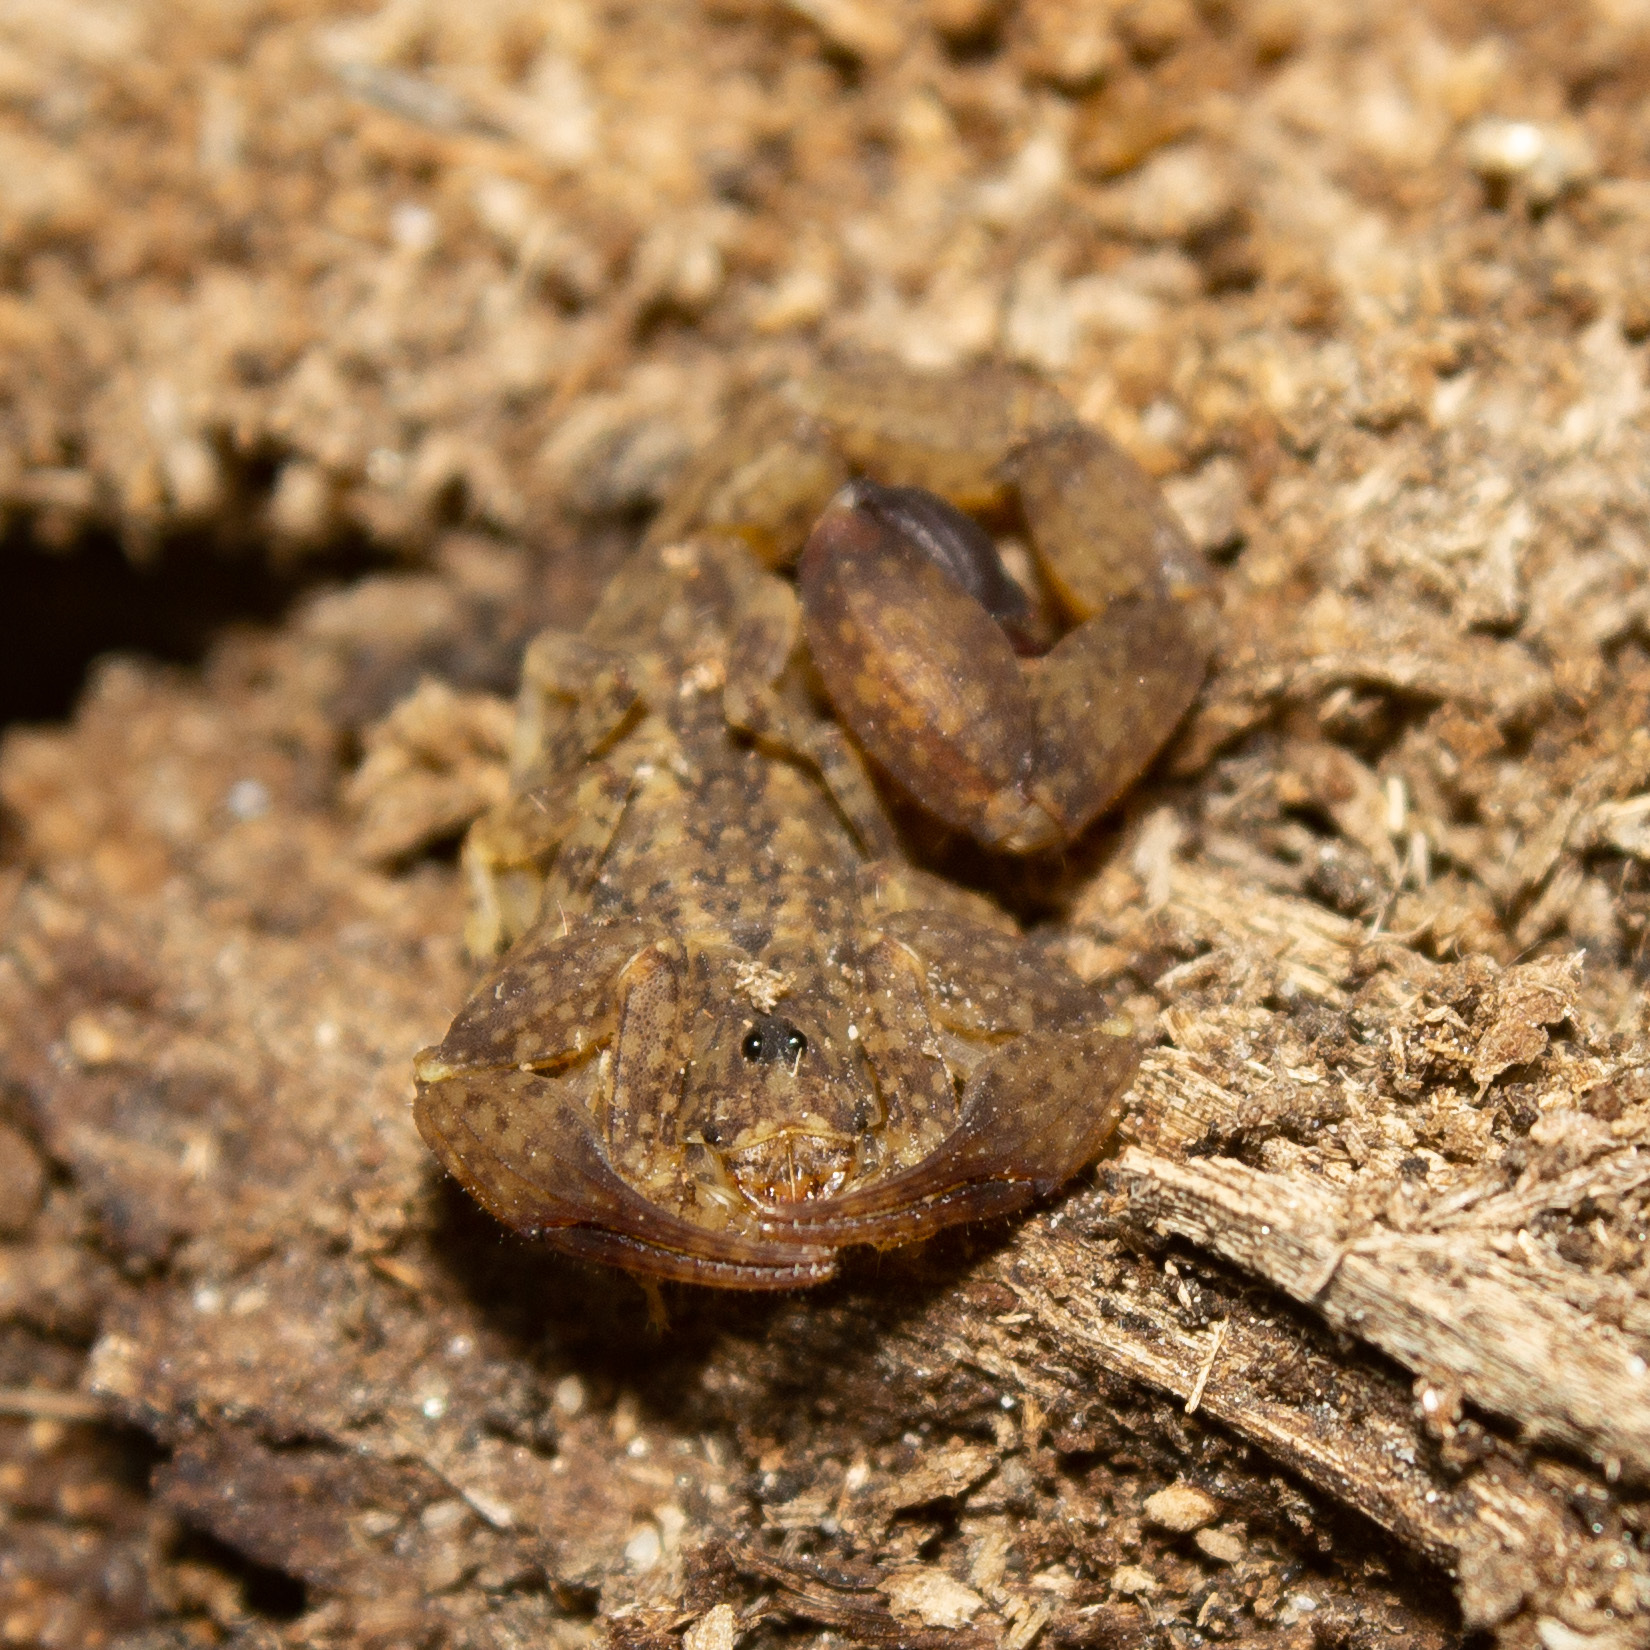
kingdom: Animalia
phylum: Arthropoda
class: Arachnida
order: Scorpiones
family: Buthidae
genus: Tityus
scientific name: Tityus tayrona
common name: Scorpiones
